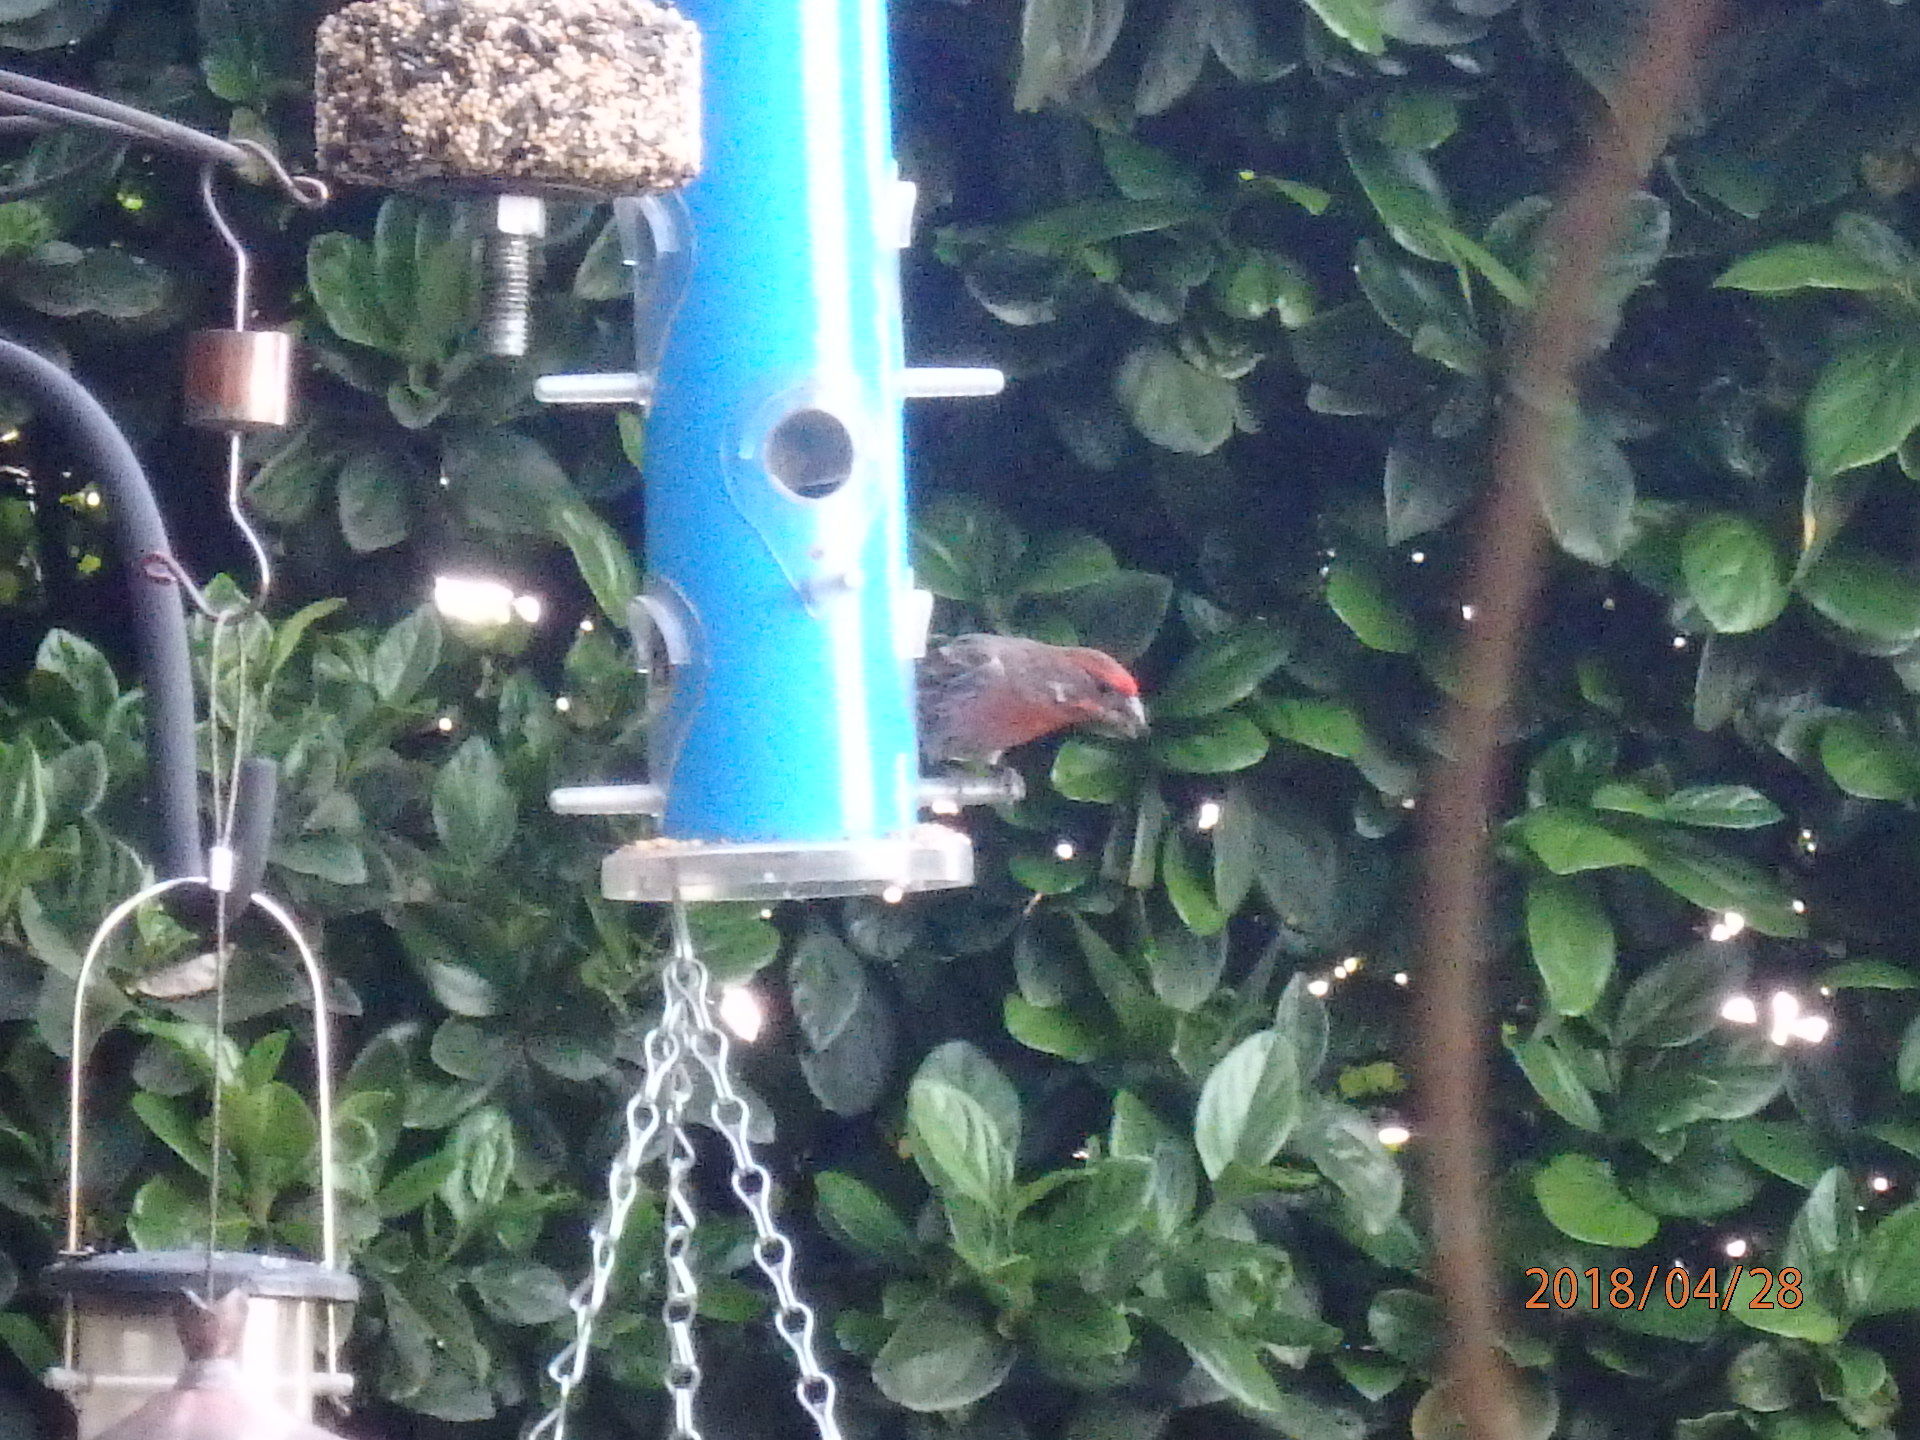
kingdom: Animalia
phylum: Chordata
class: Aves
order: Passeriformes
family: Fringillidae
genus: Haemorhous
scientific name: Haemorhous mexicanus
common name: House finch
